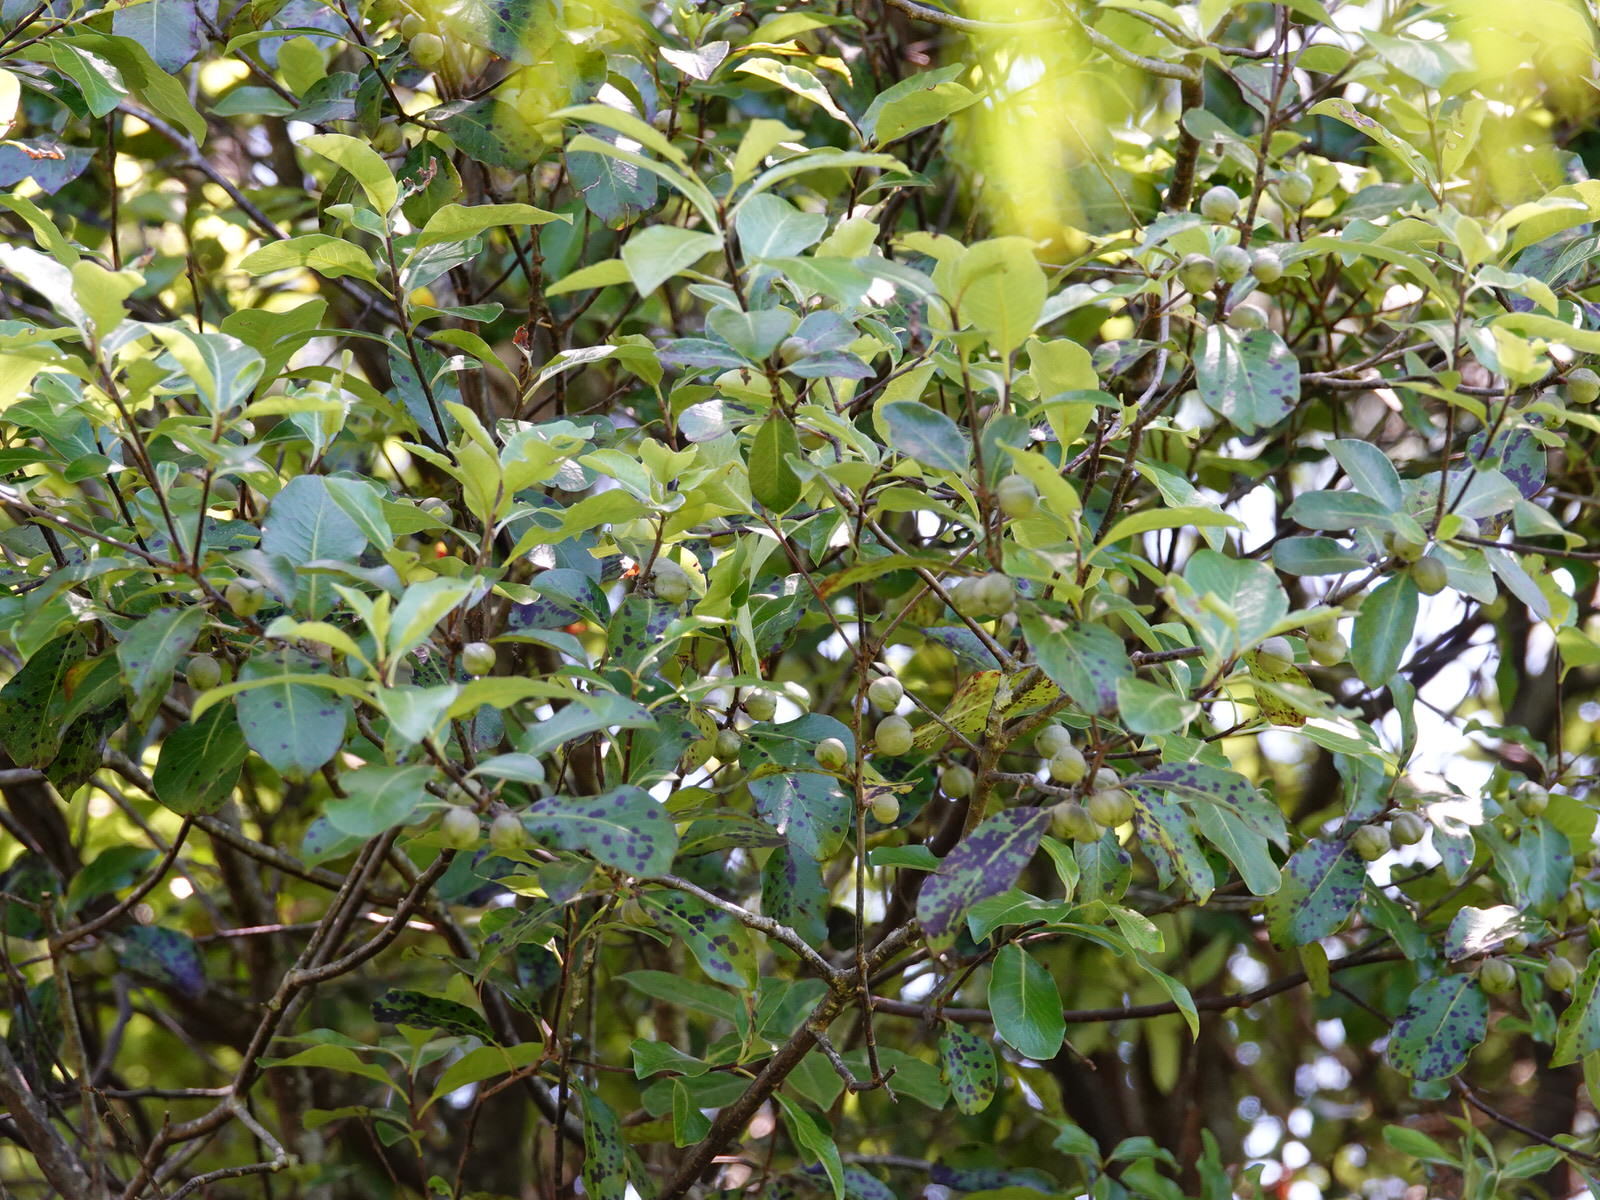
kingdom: Plantae
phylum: Tracheophyta
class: Magnoliopsida
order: Apiales
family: Pittosporaceae
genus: Pittosporum
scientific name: Pittosporum tenuifolium
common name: Kohuhu
